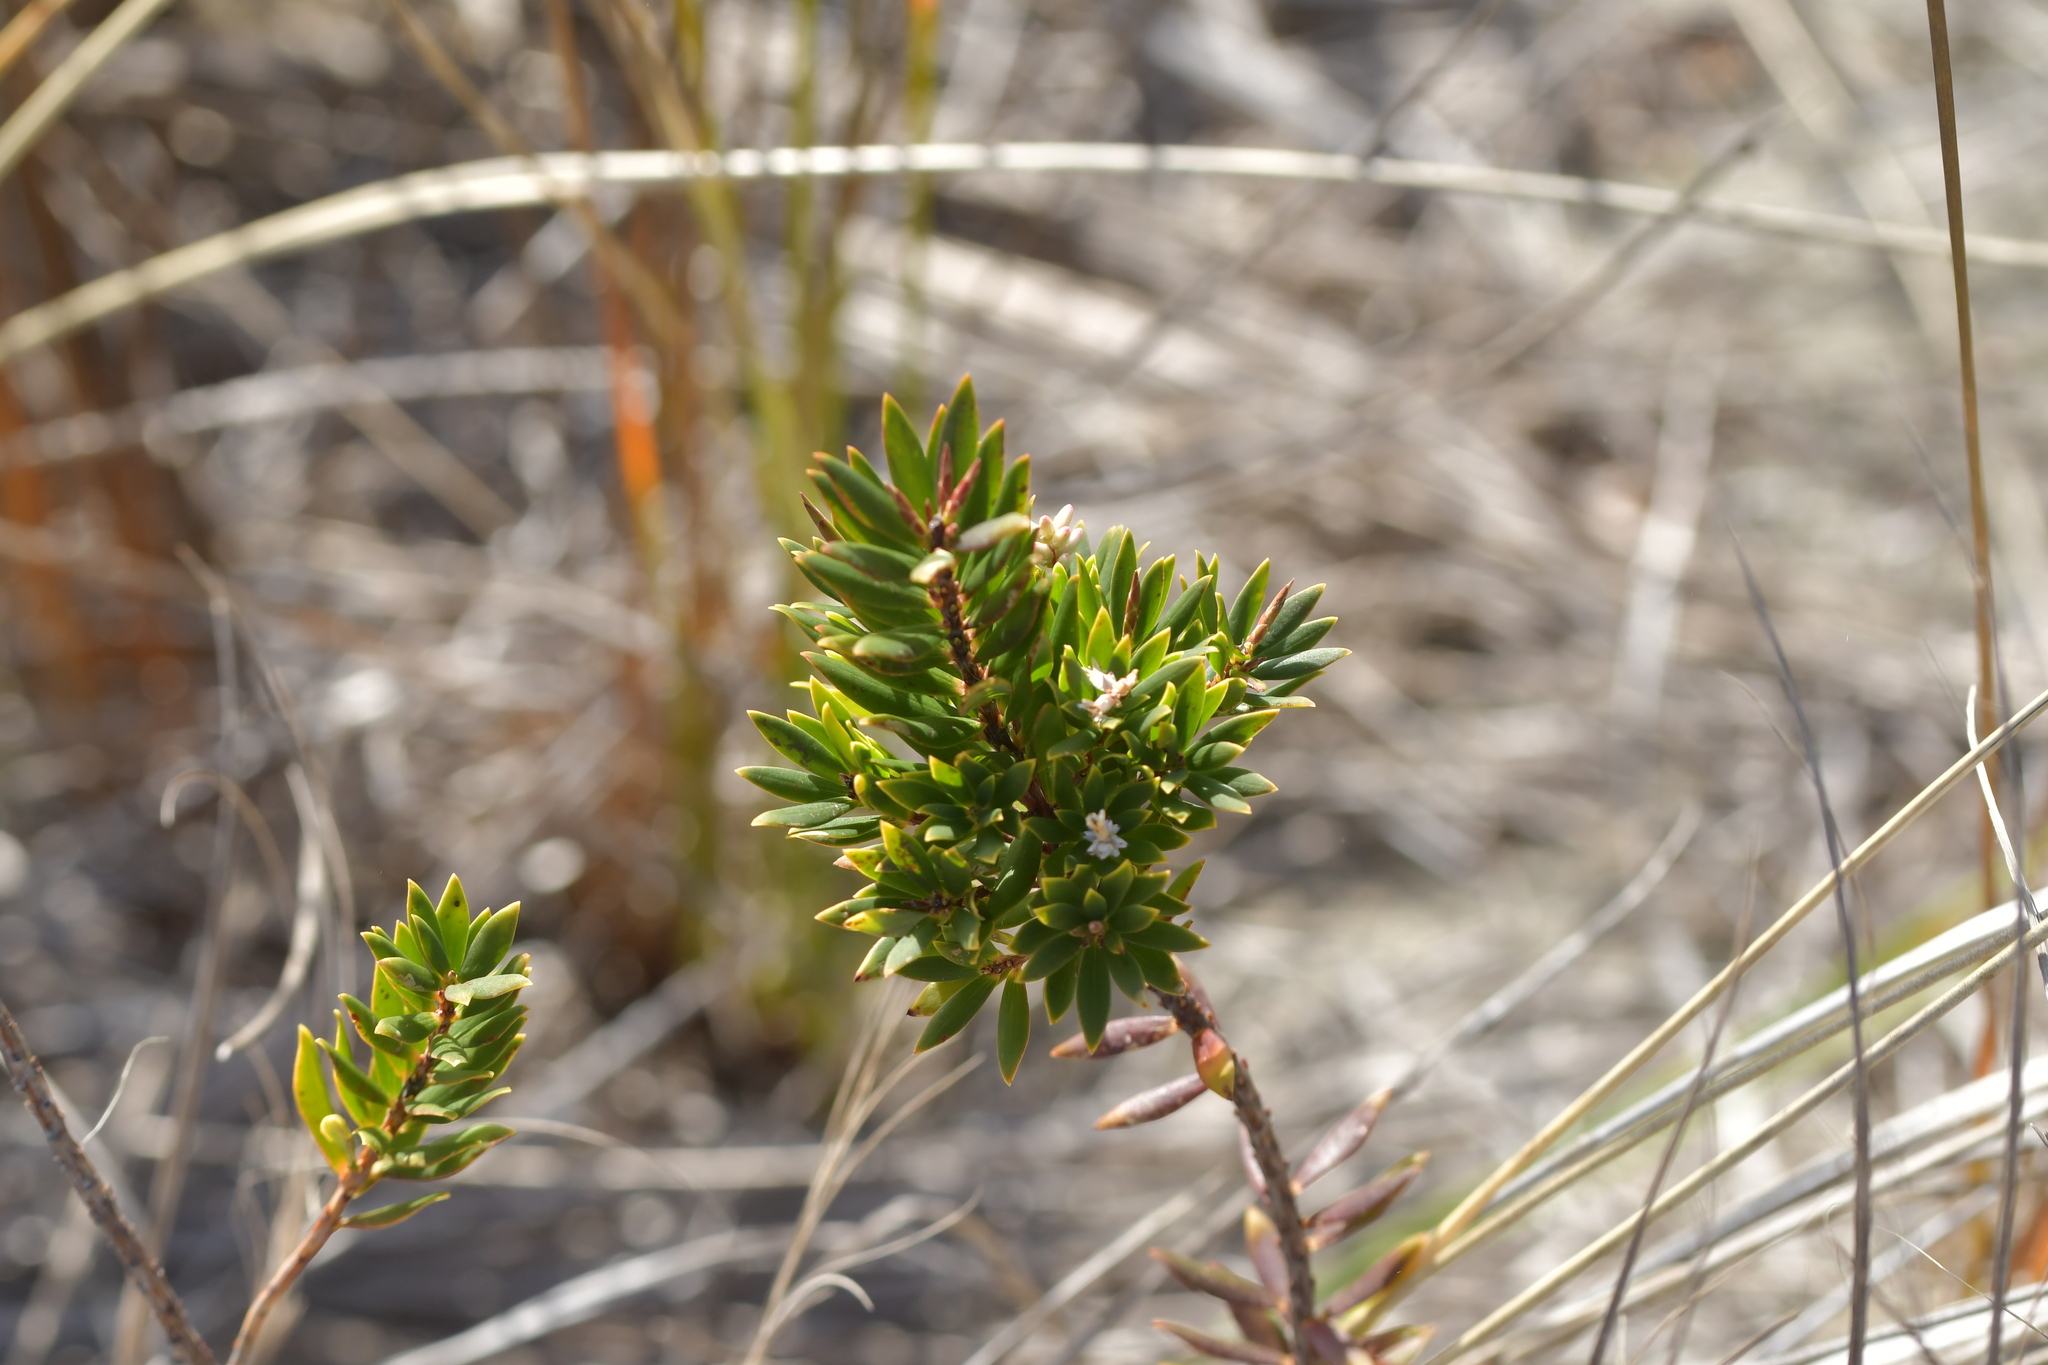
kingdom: Plantae
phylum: Tracheophyta
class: Magnoliopsida
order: Ericales
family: Ericaceae
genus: Leptecophylla
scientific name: Leptecophylla parvifolia
